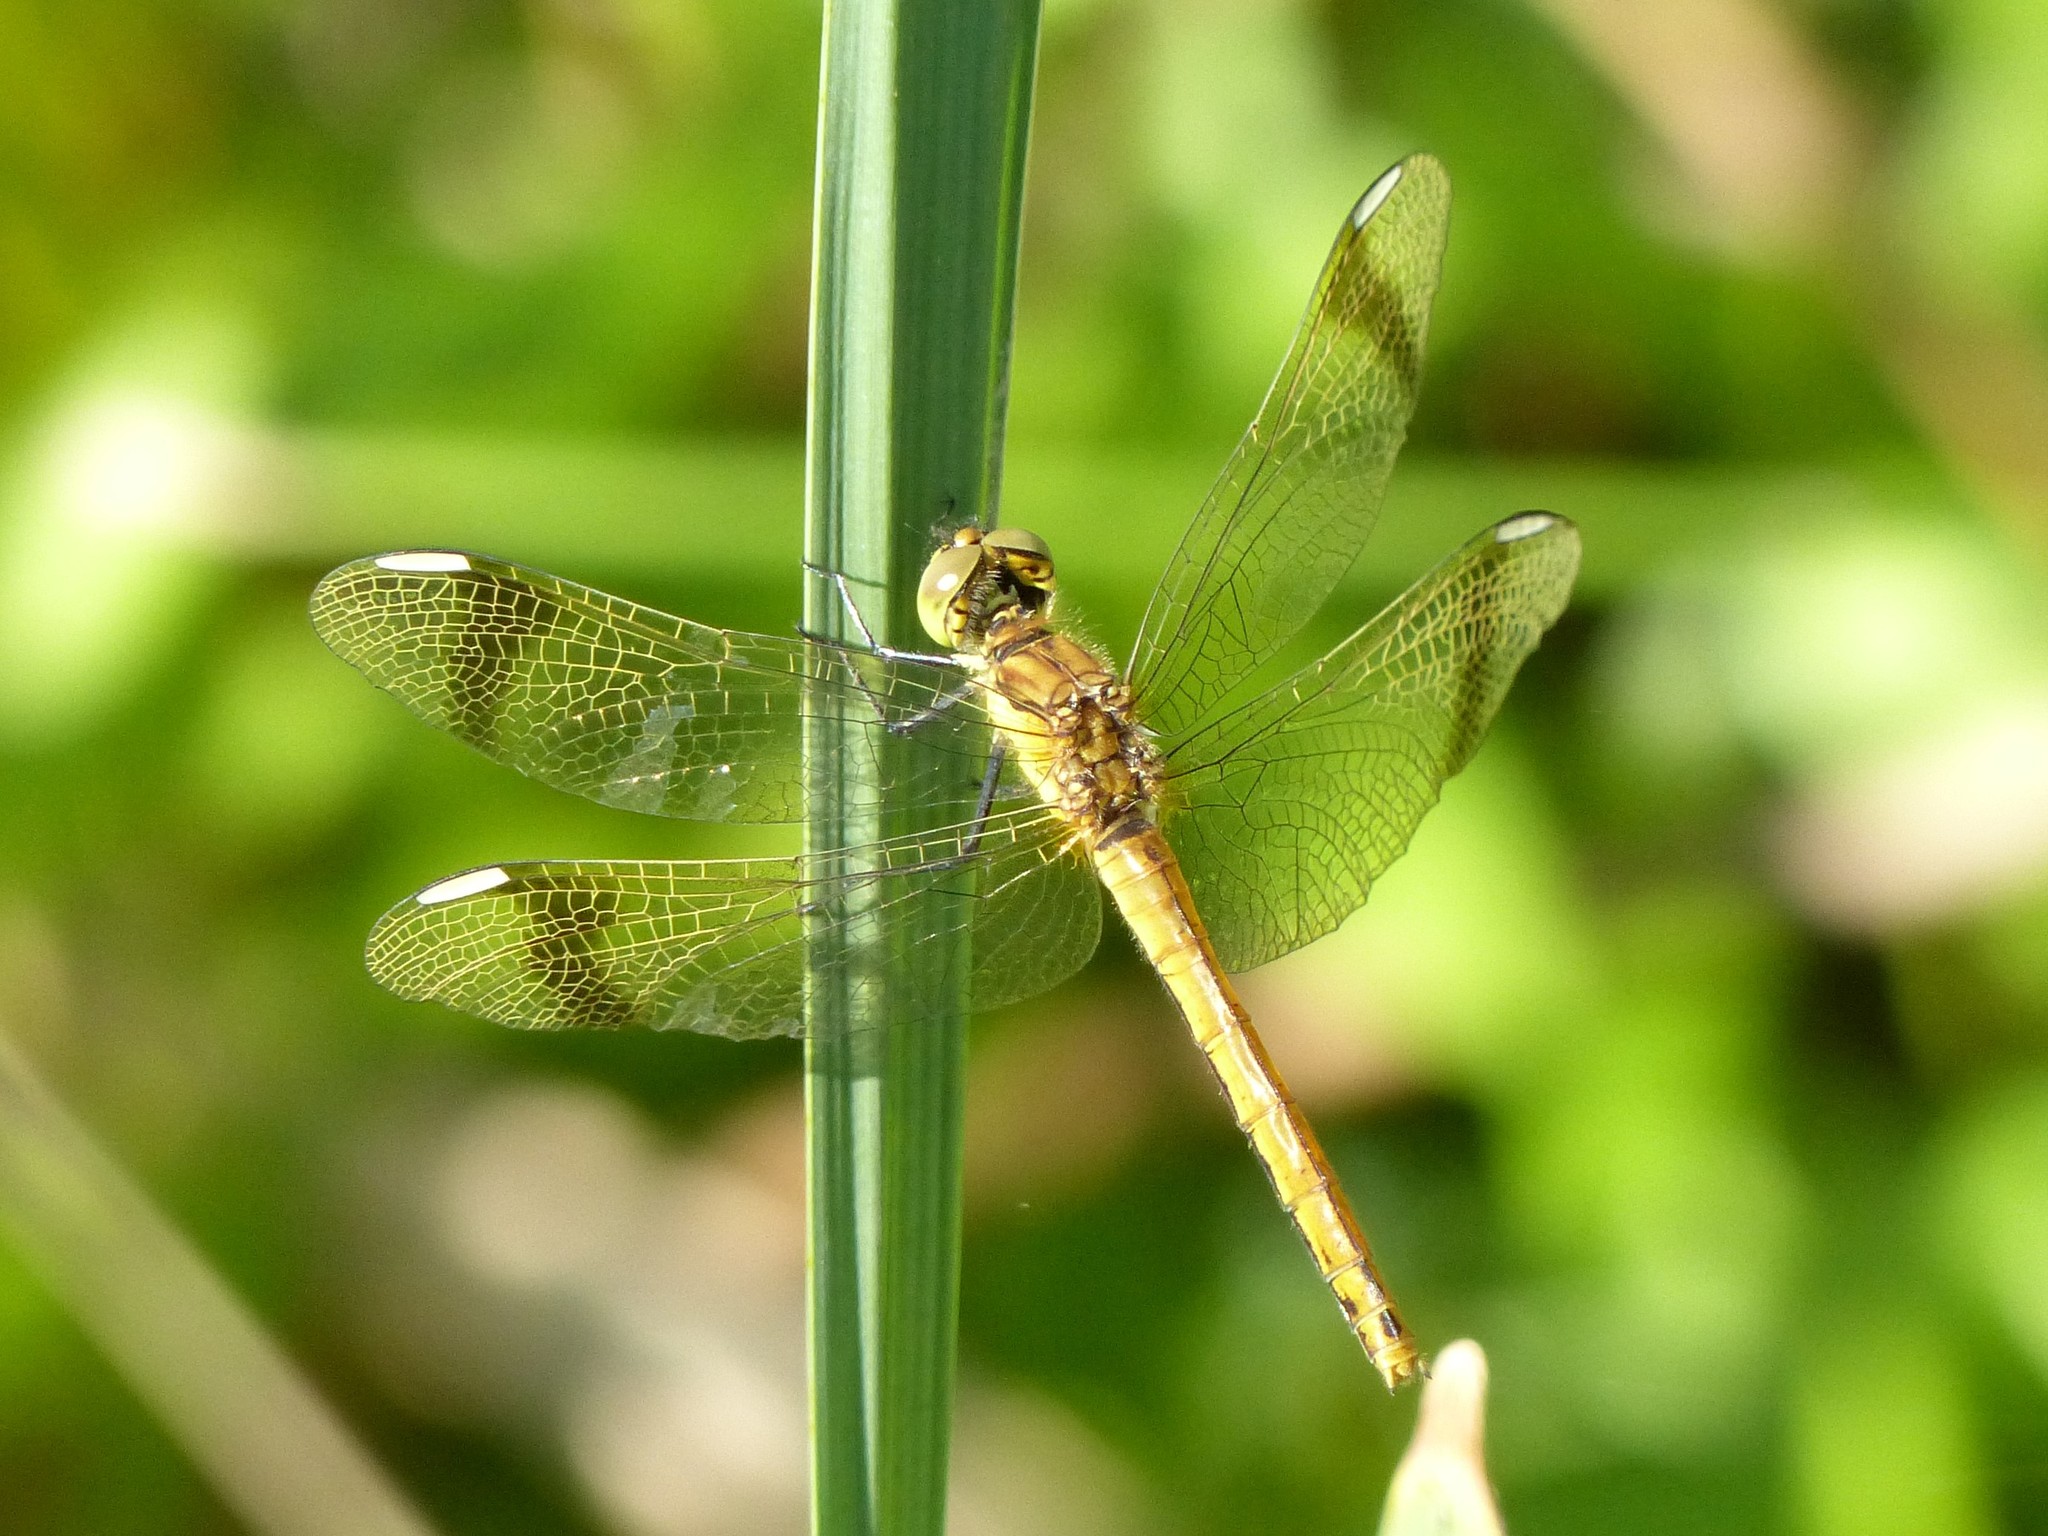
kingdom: Animalia
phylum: Arthropoda
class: Insecta
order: Odonata
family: Libellulidae
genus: Sympetrum
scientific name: Sympetrum pedemontanum
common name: Banded darter
